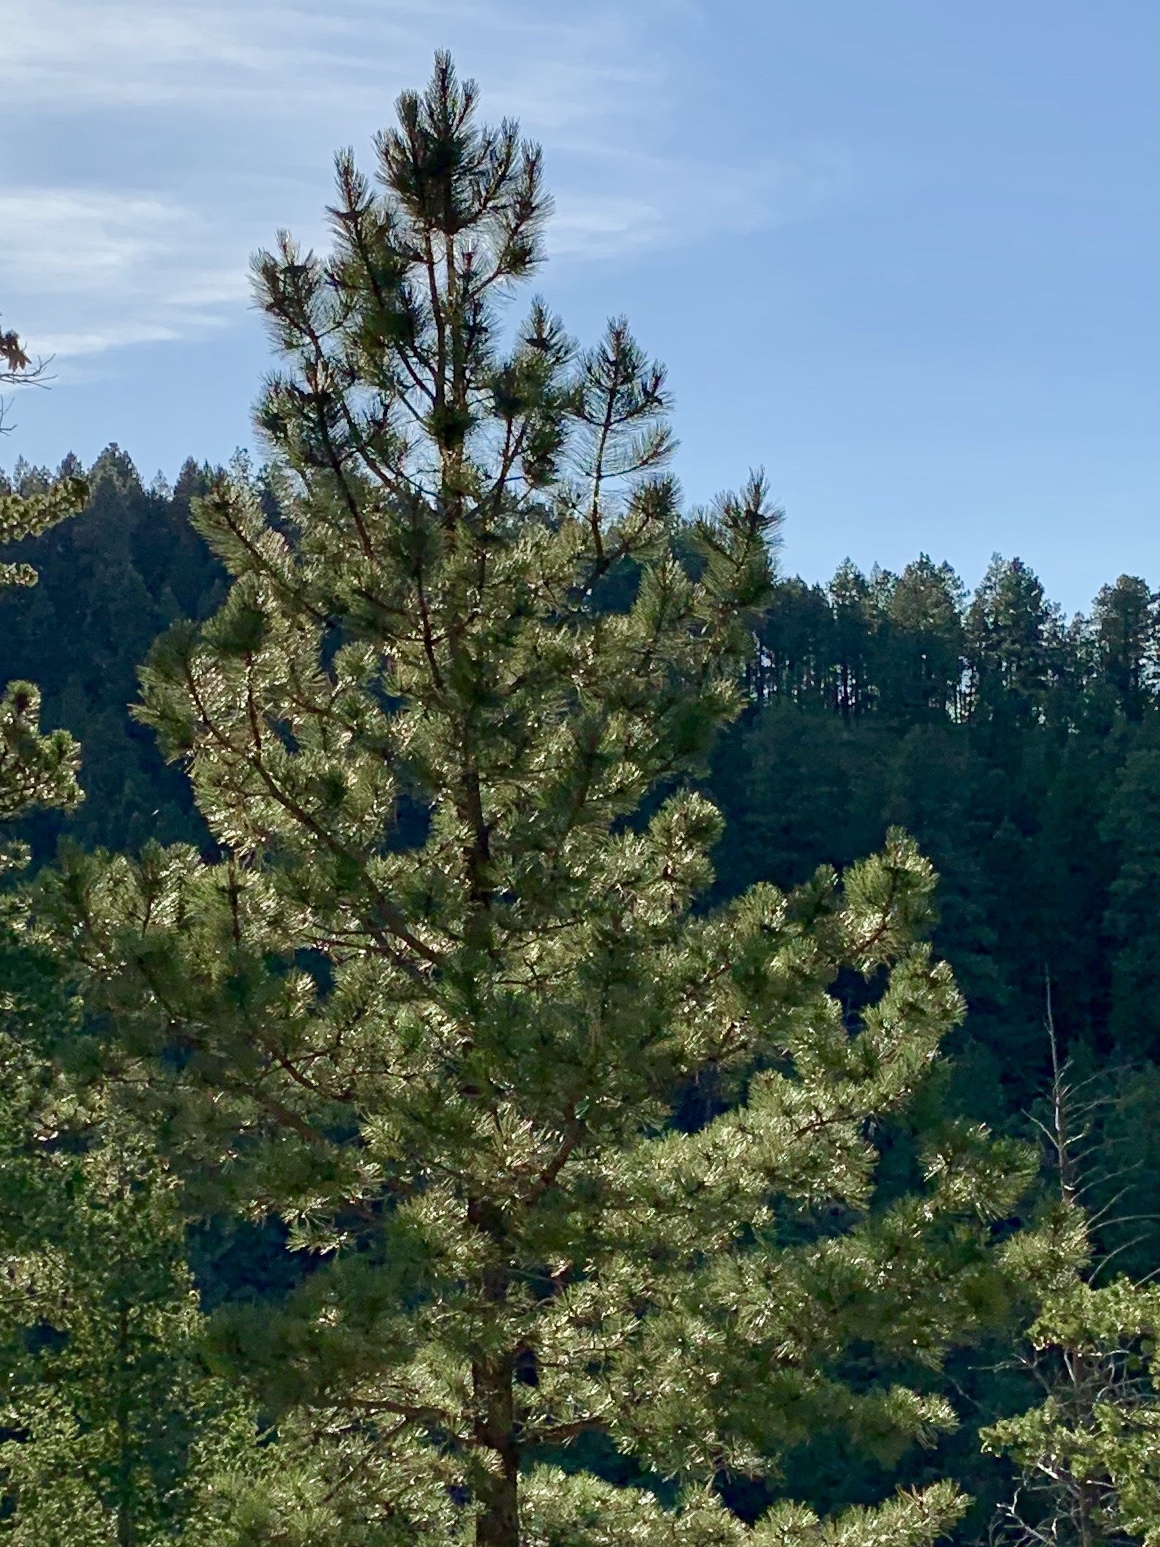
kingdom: Plantae
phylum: Tracheophyta
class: Pinopsida
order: Pinales
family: Pinaceae
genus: Pinus
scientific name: Pinus ponderosa
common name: Western yellow-pine
